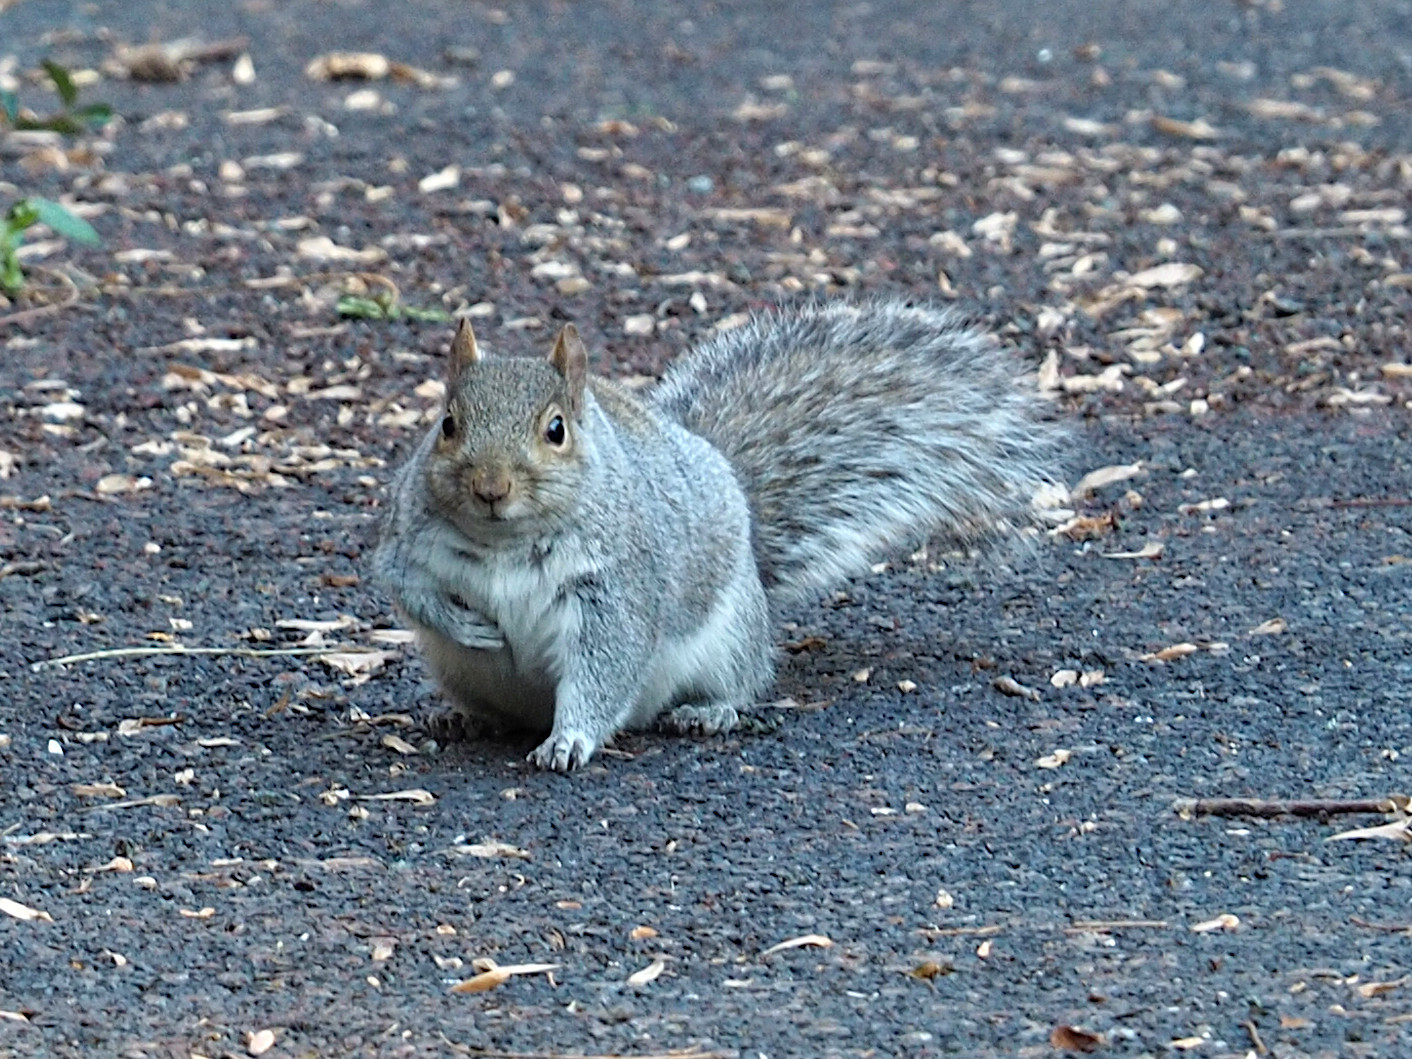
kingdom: Animalia
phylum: Chordata
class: Mammalia
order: Rodentia
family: Sciuridae
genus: Sciurus
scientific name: Sciurus carolinensis
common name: Eastern gray squirrel
